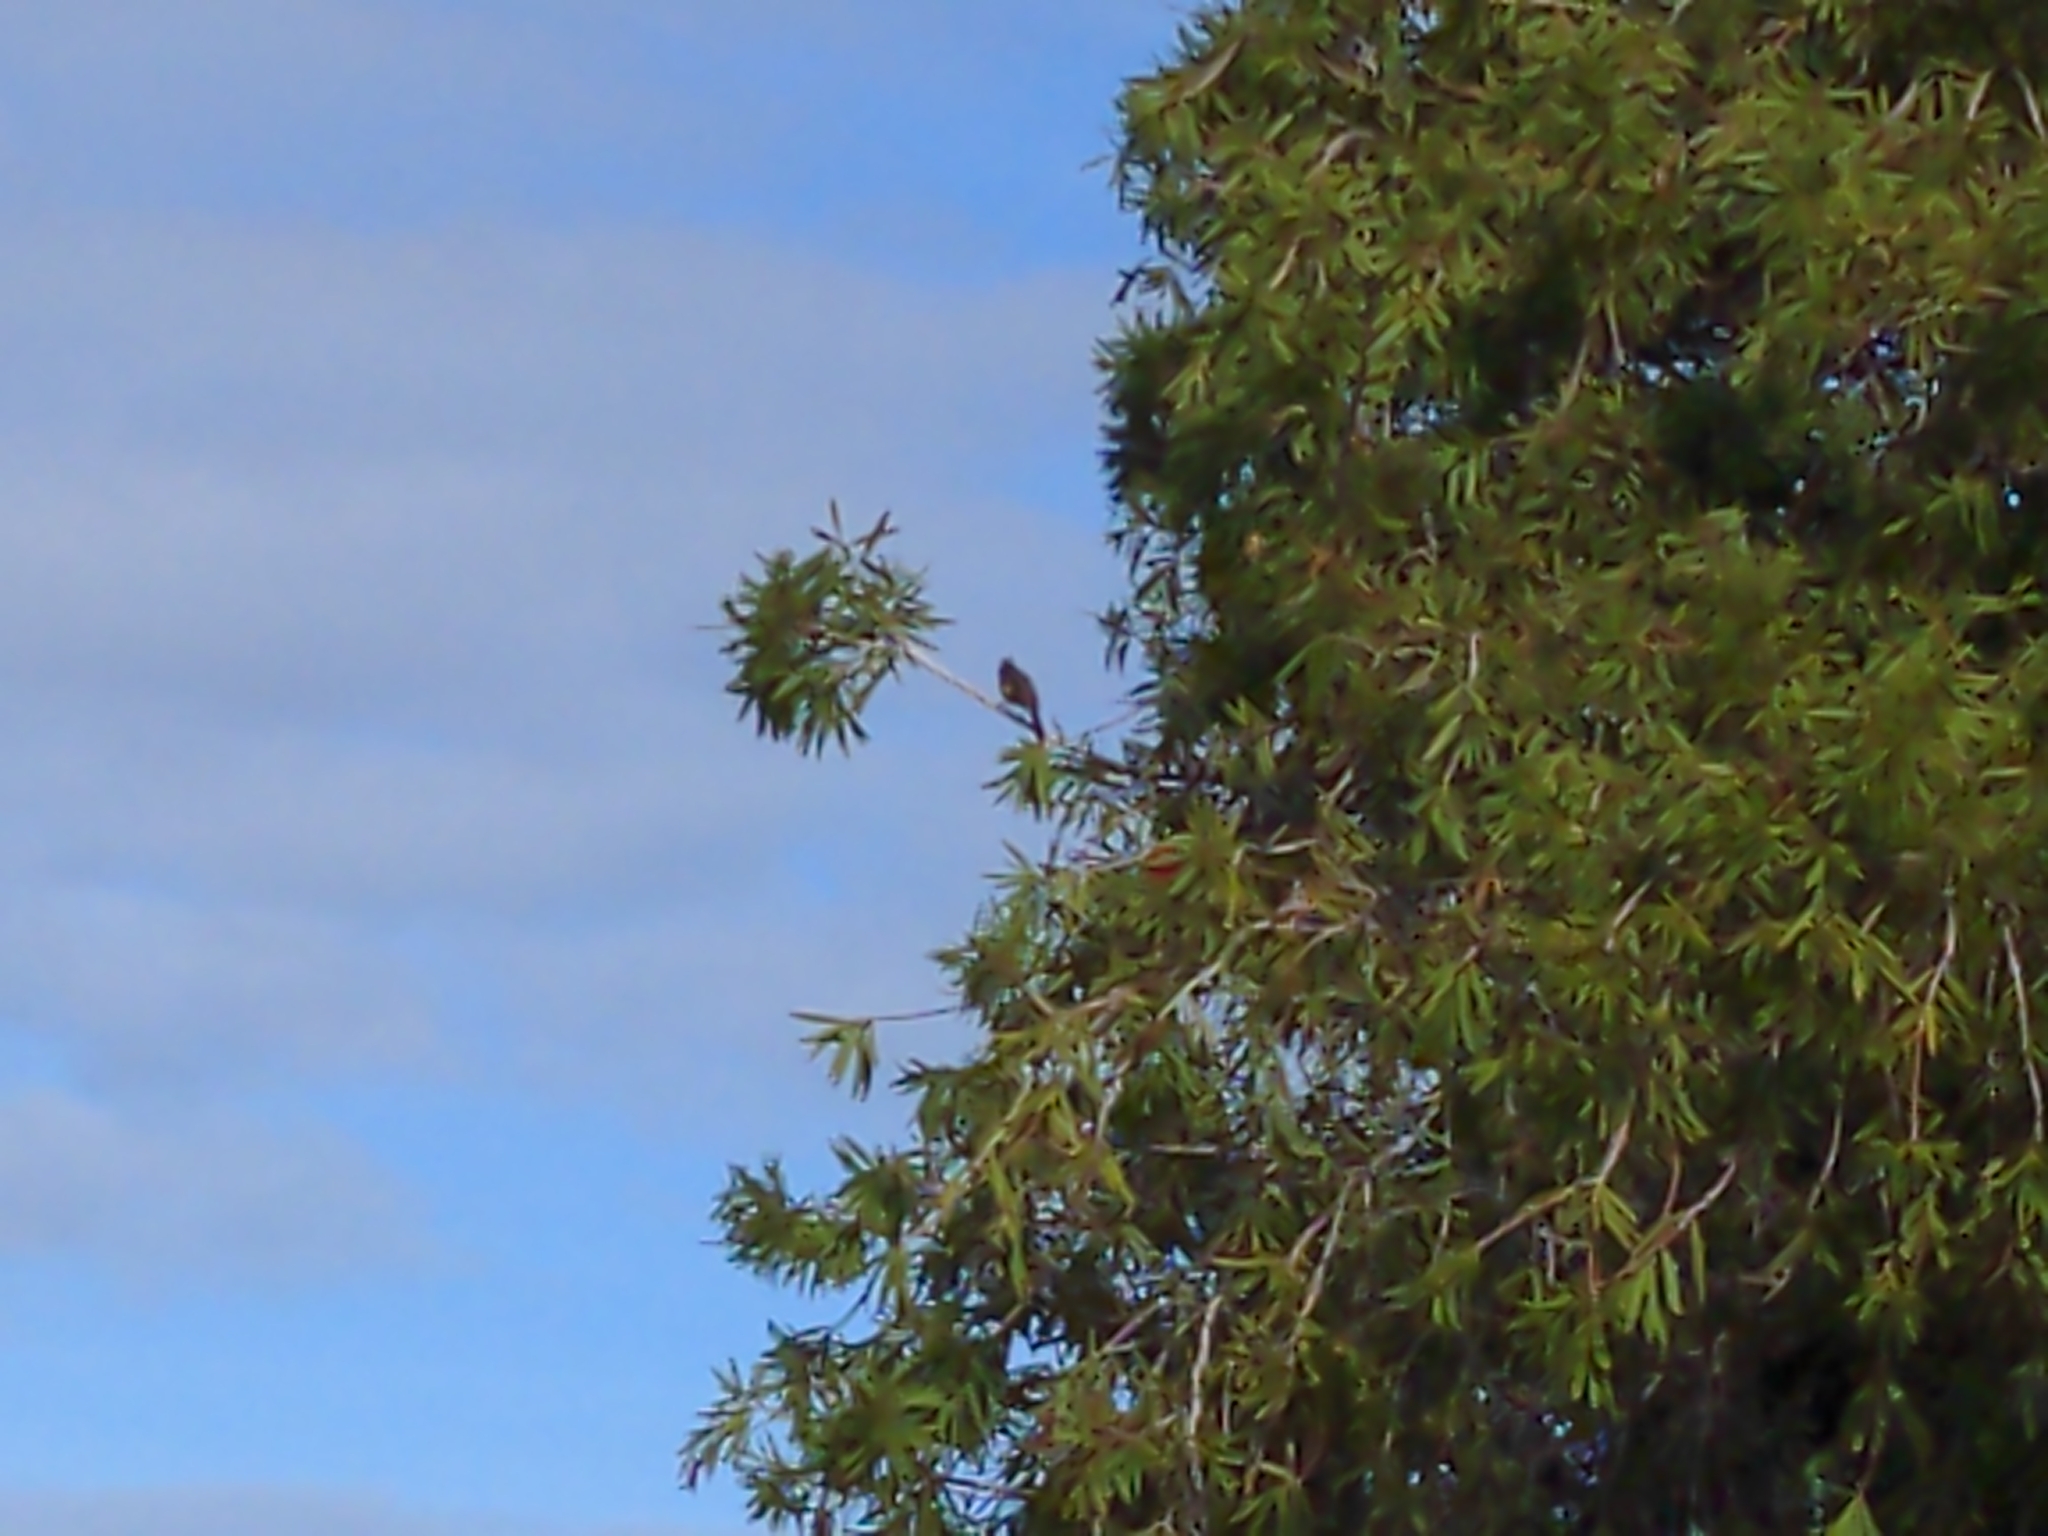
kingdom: Animalia
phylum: Chordata
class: Aves
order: Passeriformes
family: Meliphagidae
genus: Phylidonyris
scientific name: Phylidonyris novaehollandiae
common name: New holland honeyeater
